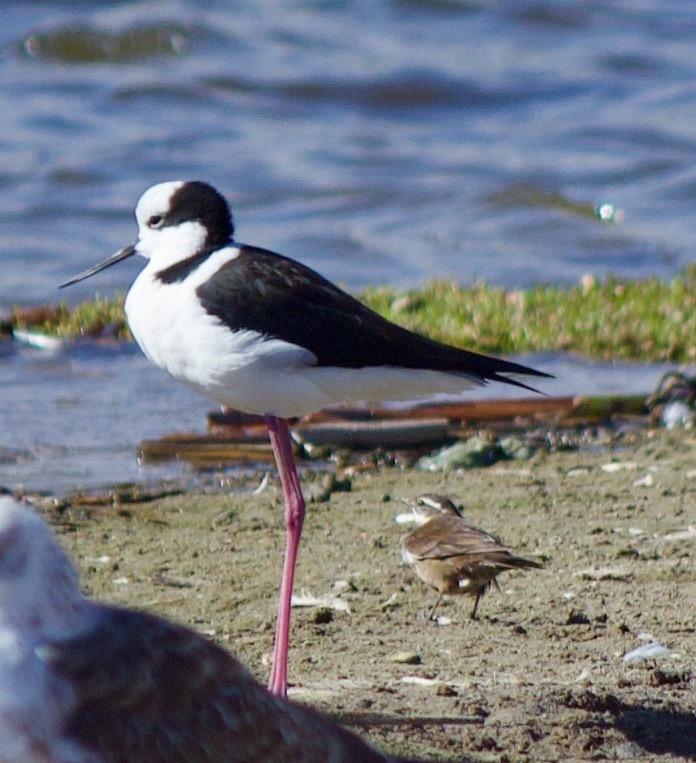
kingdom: Animalia
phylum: Chordata
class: Aves
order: Charadriiformes
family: Recurvirostridae
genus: Himantopus
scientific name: Himantopus mexicanus
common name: Black-necked stilt
